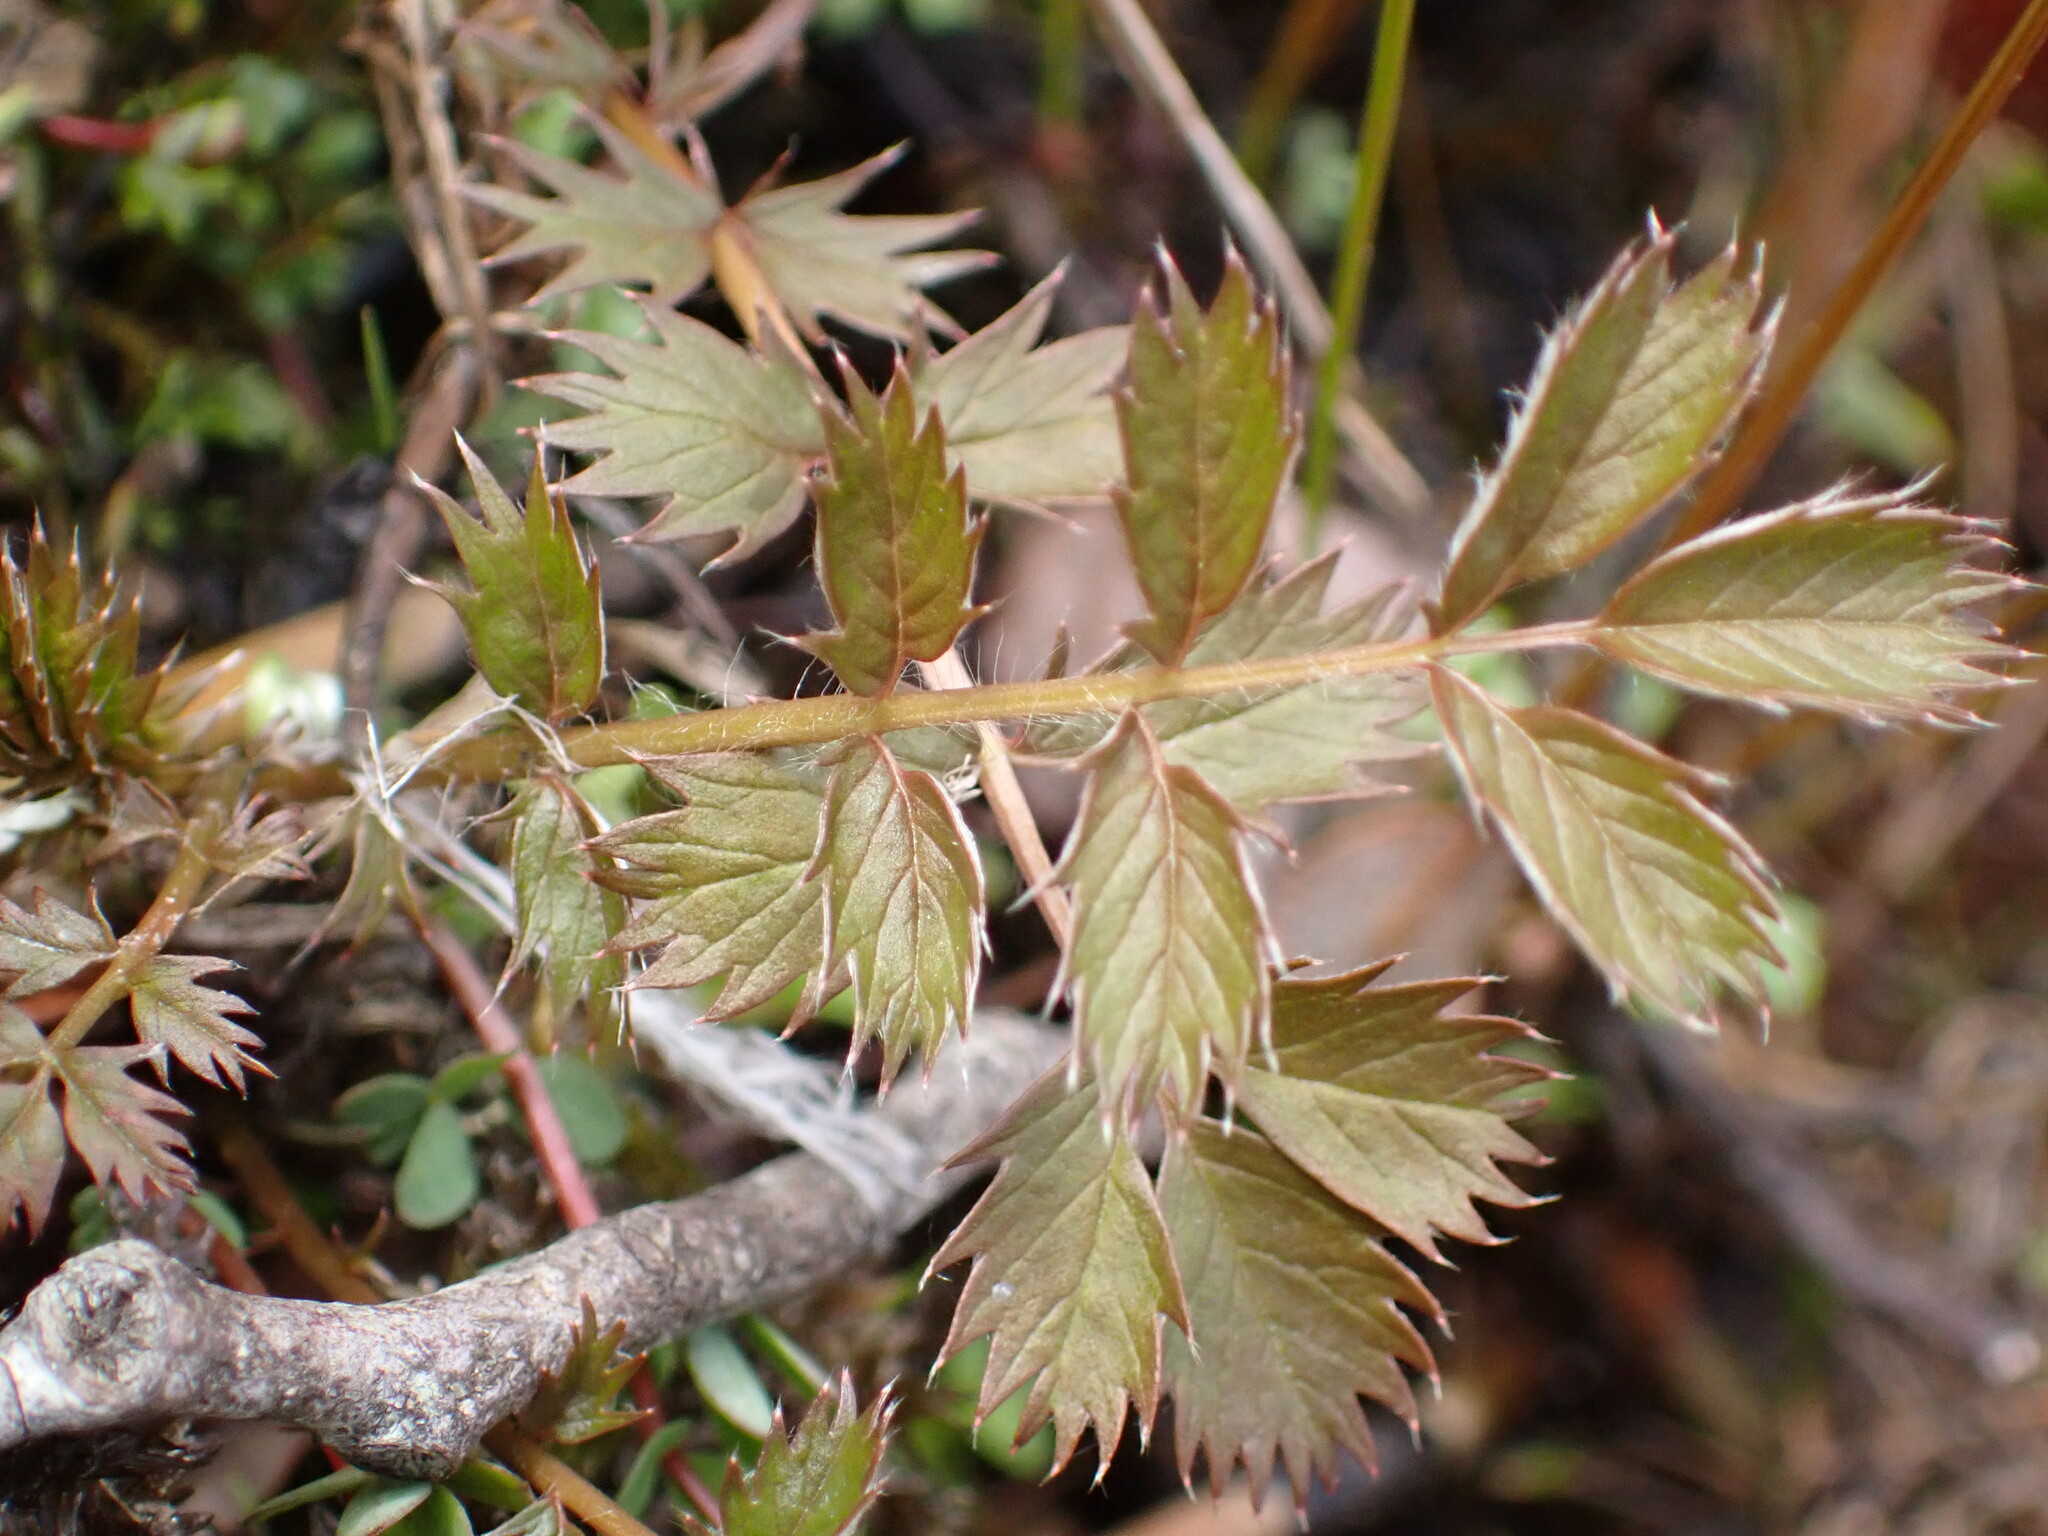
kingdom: Plantae
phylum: Tracheophyta
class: Magnoliopsida
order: Rosales
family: Rosaceae
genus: Argentina
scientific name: Argentina anserinoides
